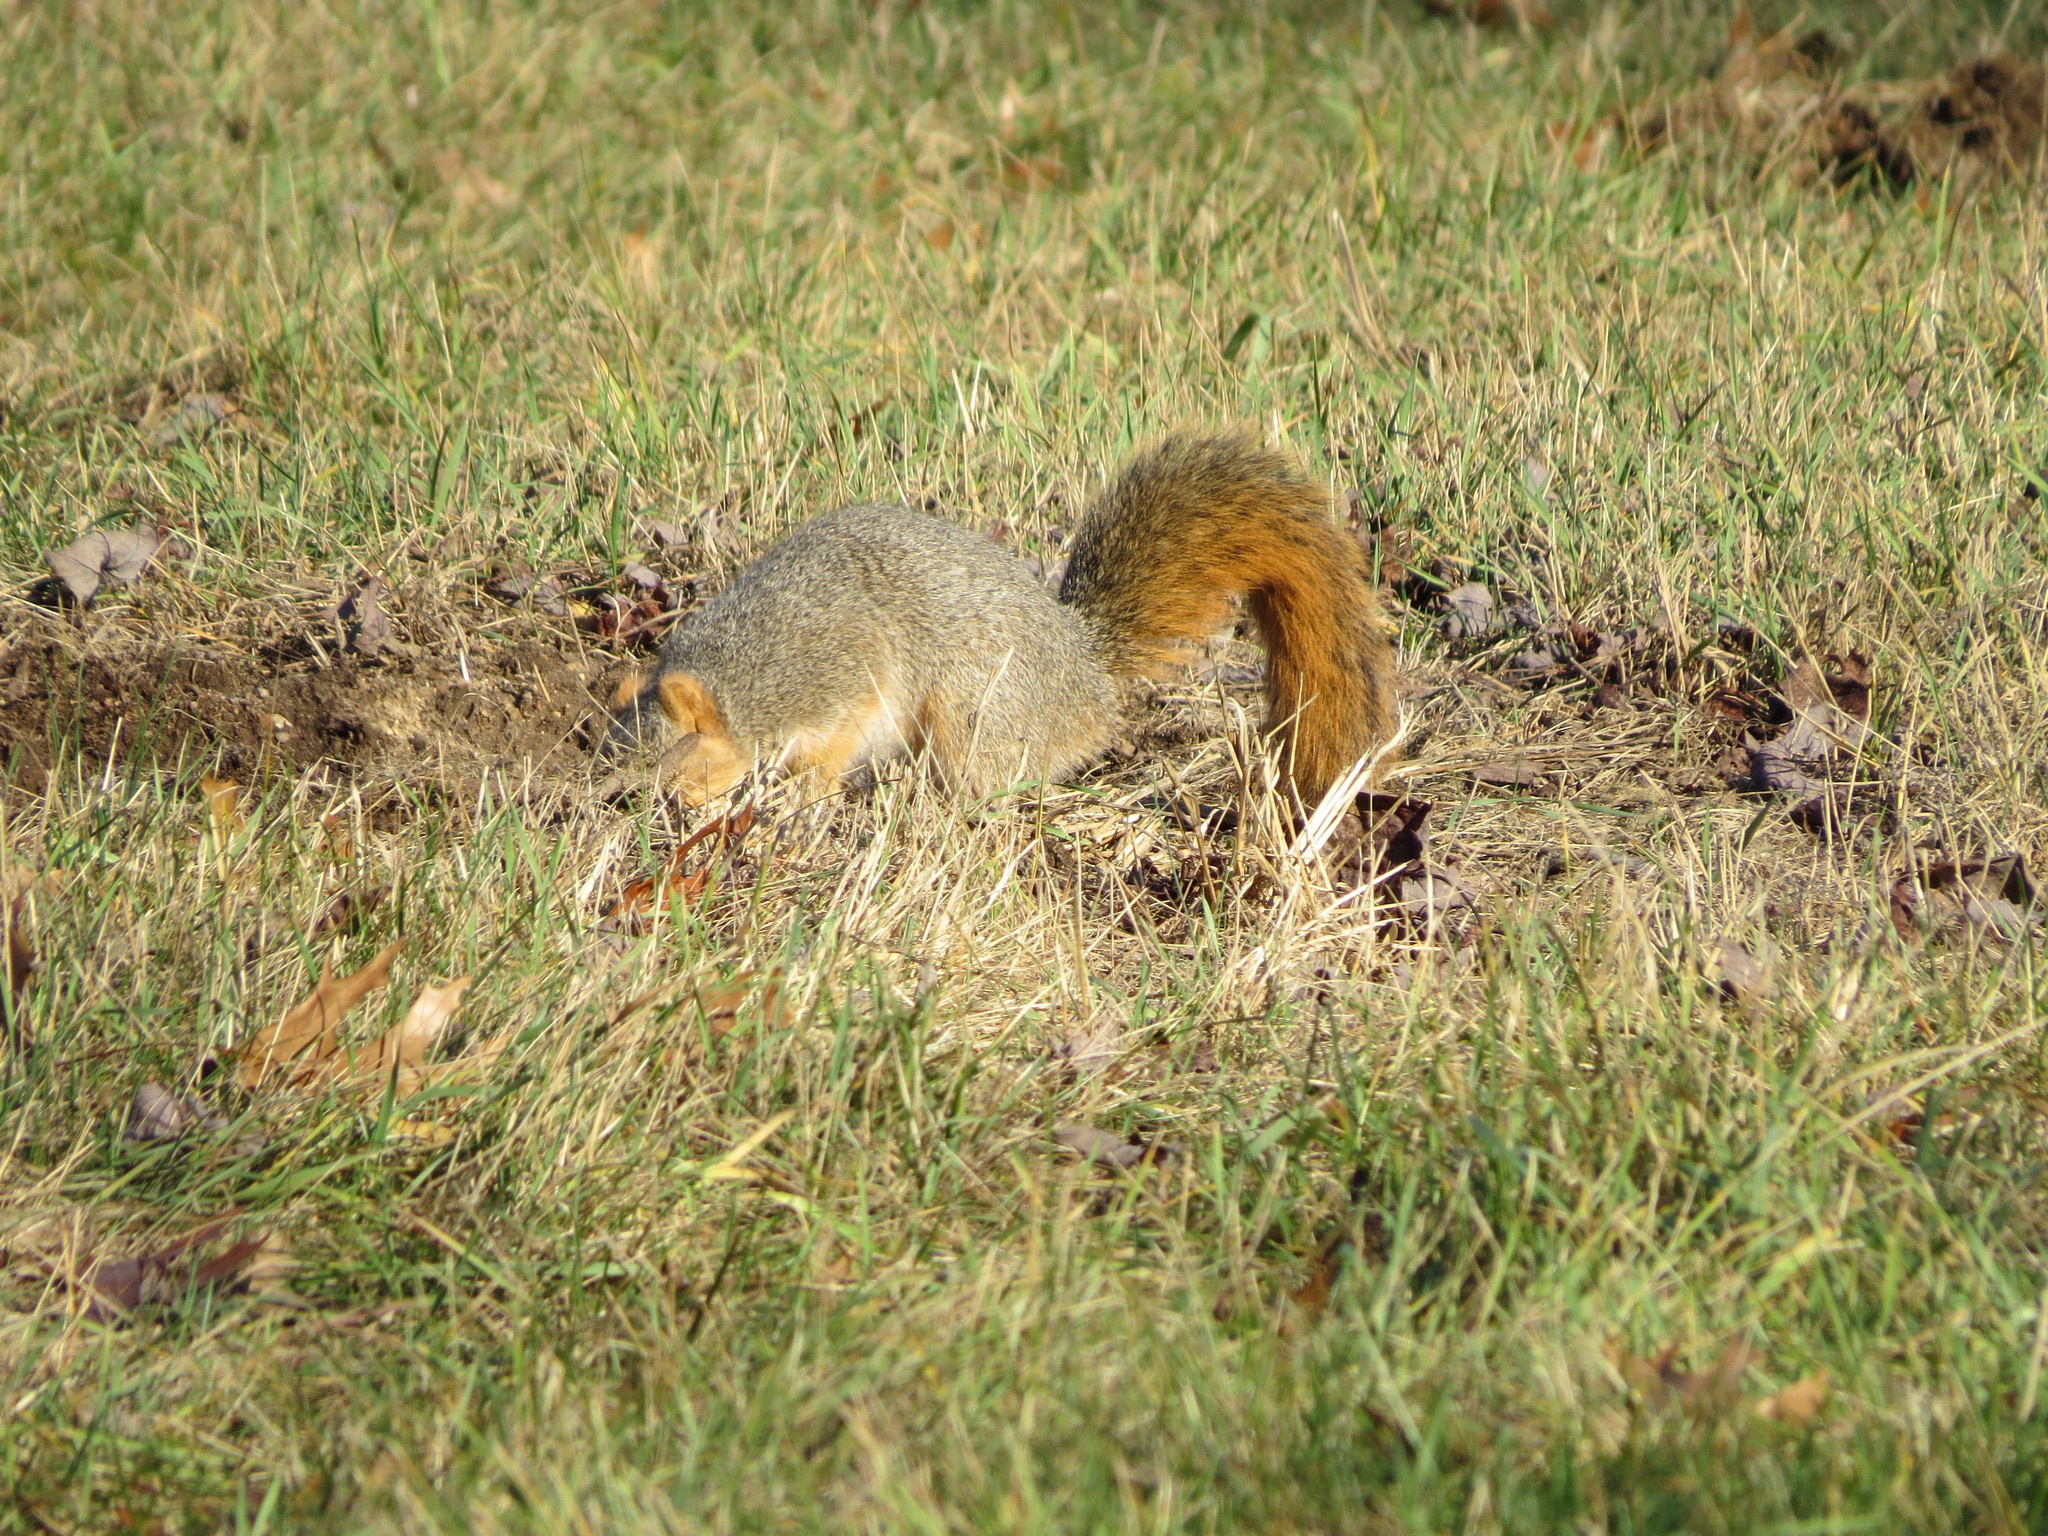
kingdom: Animalia
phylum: Chordata
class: Mammalia
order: Rodentia
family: Sciuridae
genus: Sciurus
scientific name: Sciurus niger
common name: Fox squirrel
